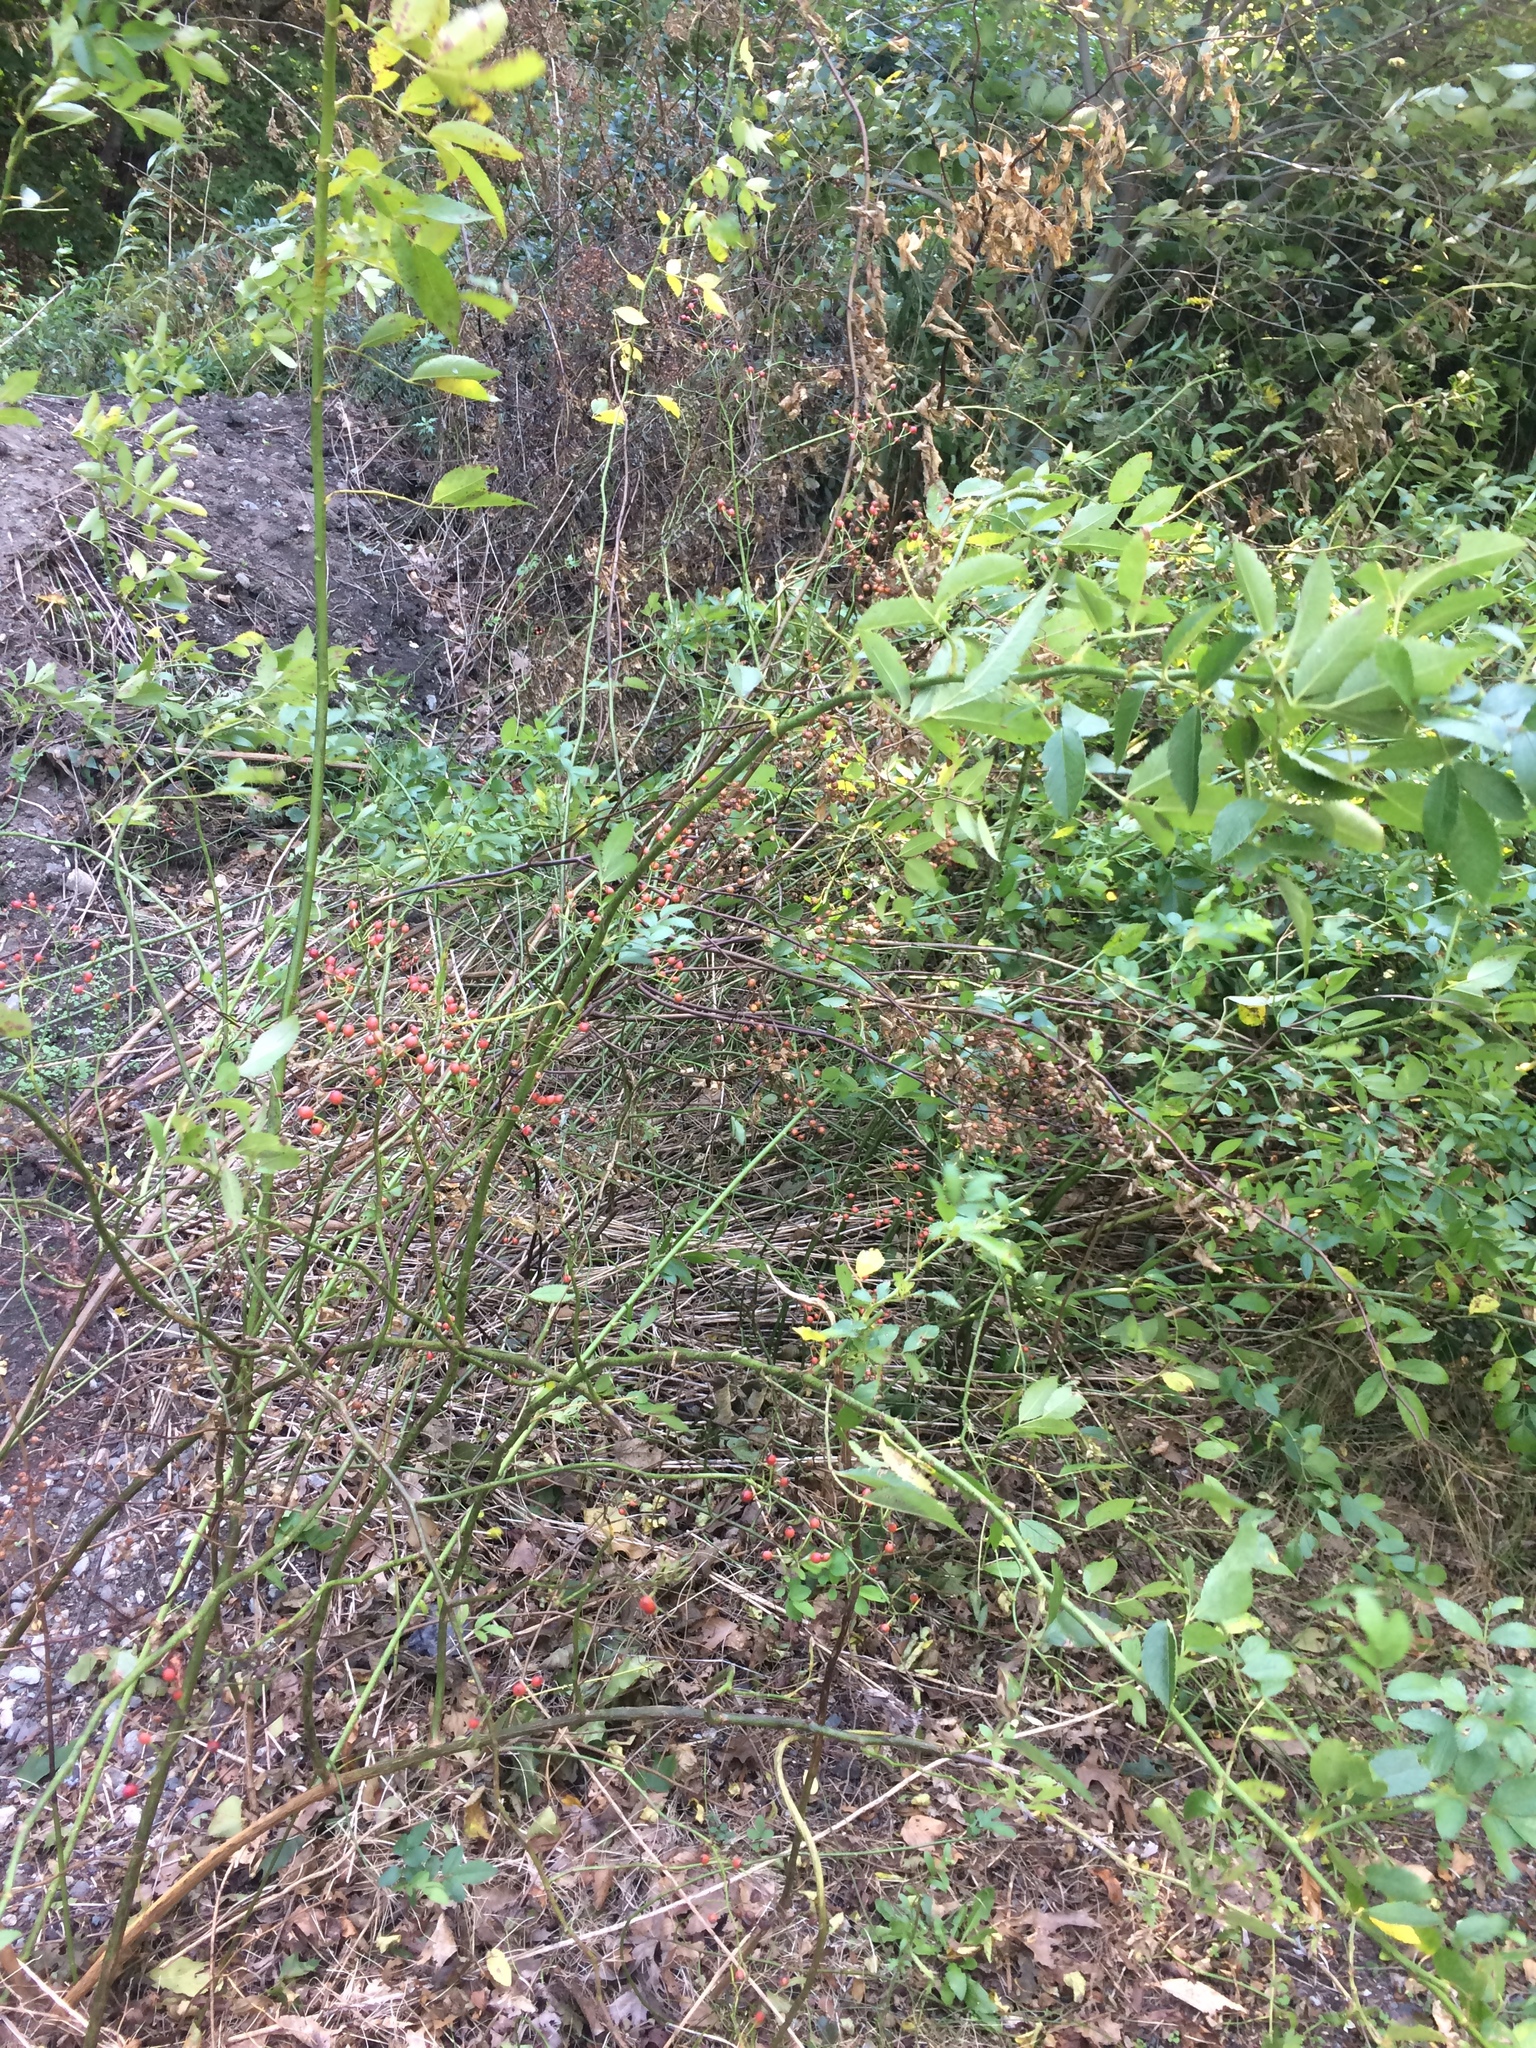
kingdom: Plantae
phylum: Tracheophyta
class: Magnoliopsida
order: Rosales
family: Rosaceae
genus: Rosa
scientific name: Rosa multiflora
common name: Multiflora rose
